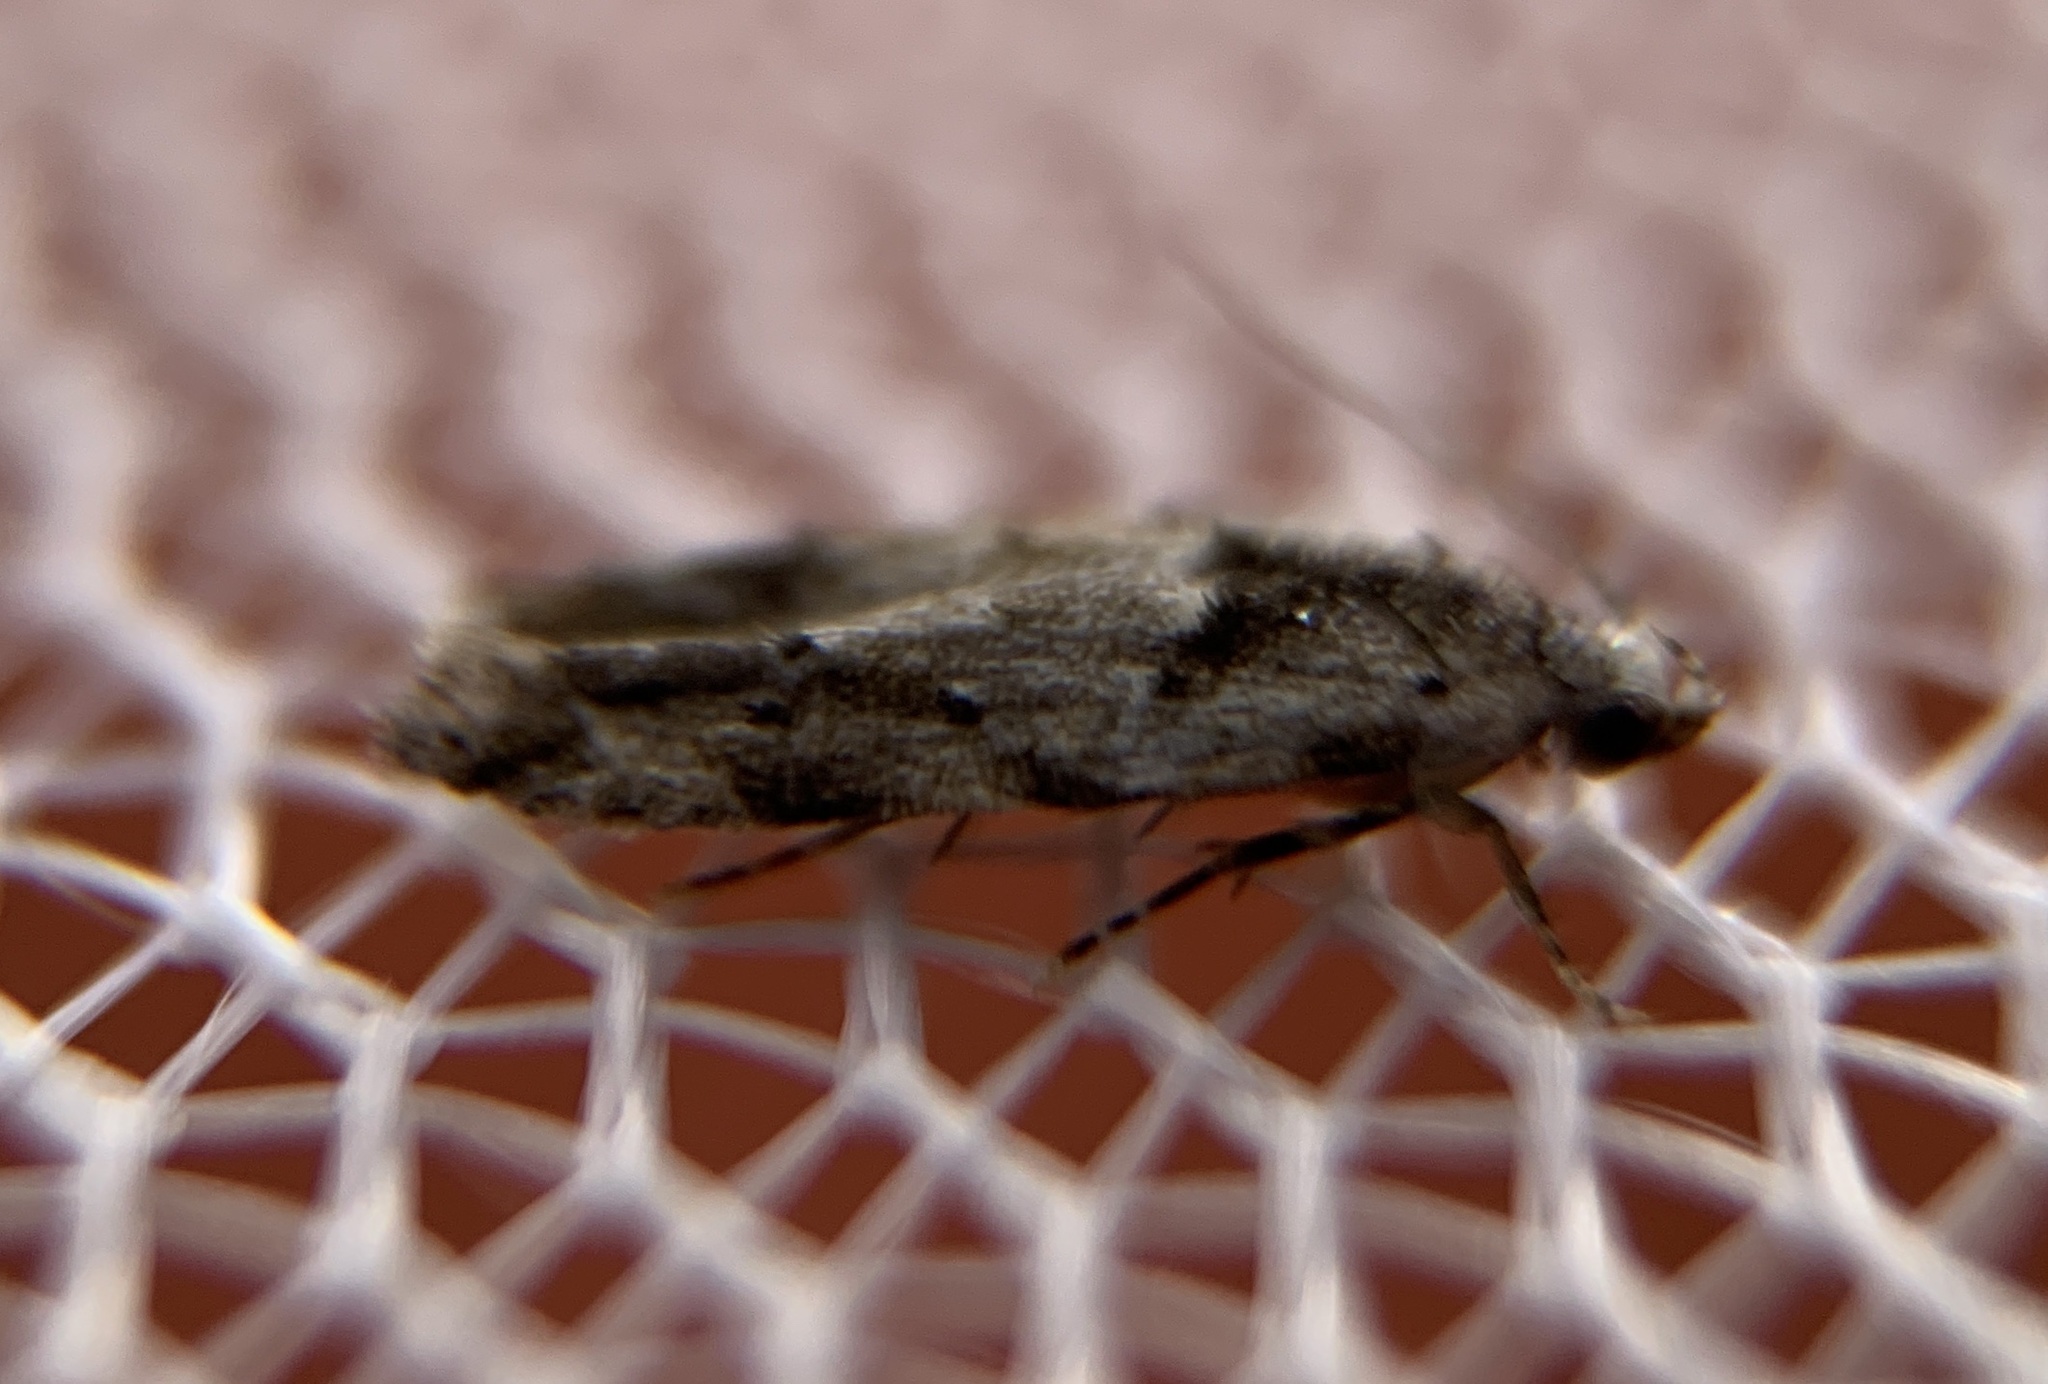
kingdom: Animalia
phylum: Arthropoda
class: Insecta
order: Lepidoptera
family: Gelechiidae
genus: Sinoe
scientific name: Sinoe robiniella
